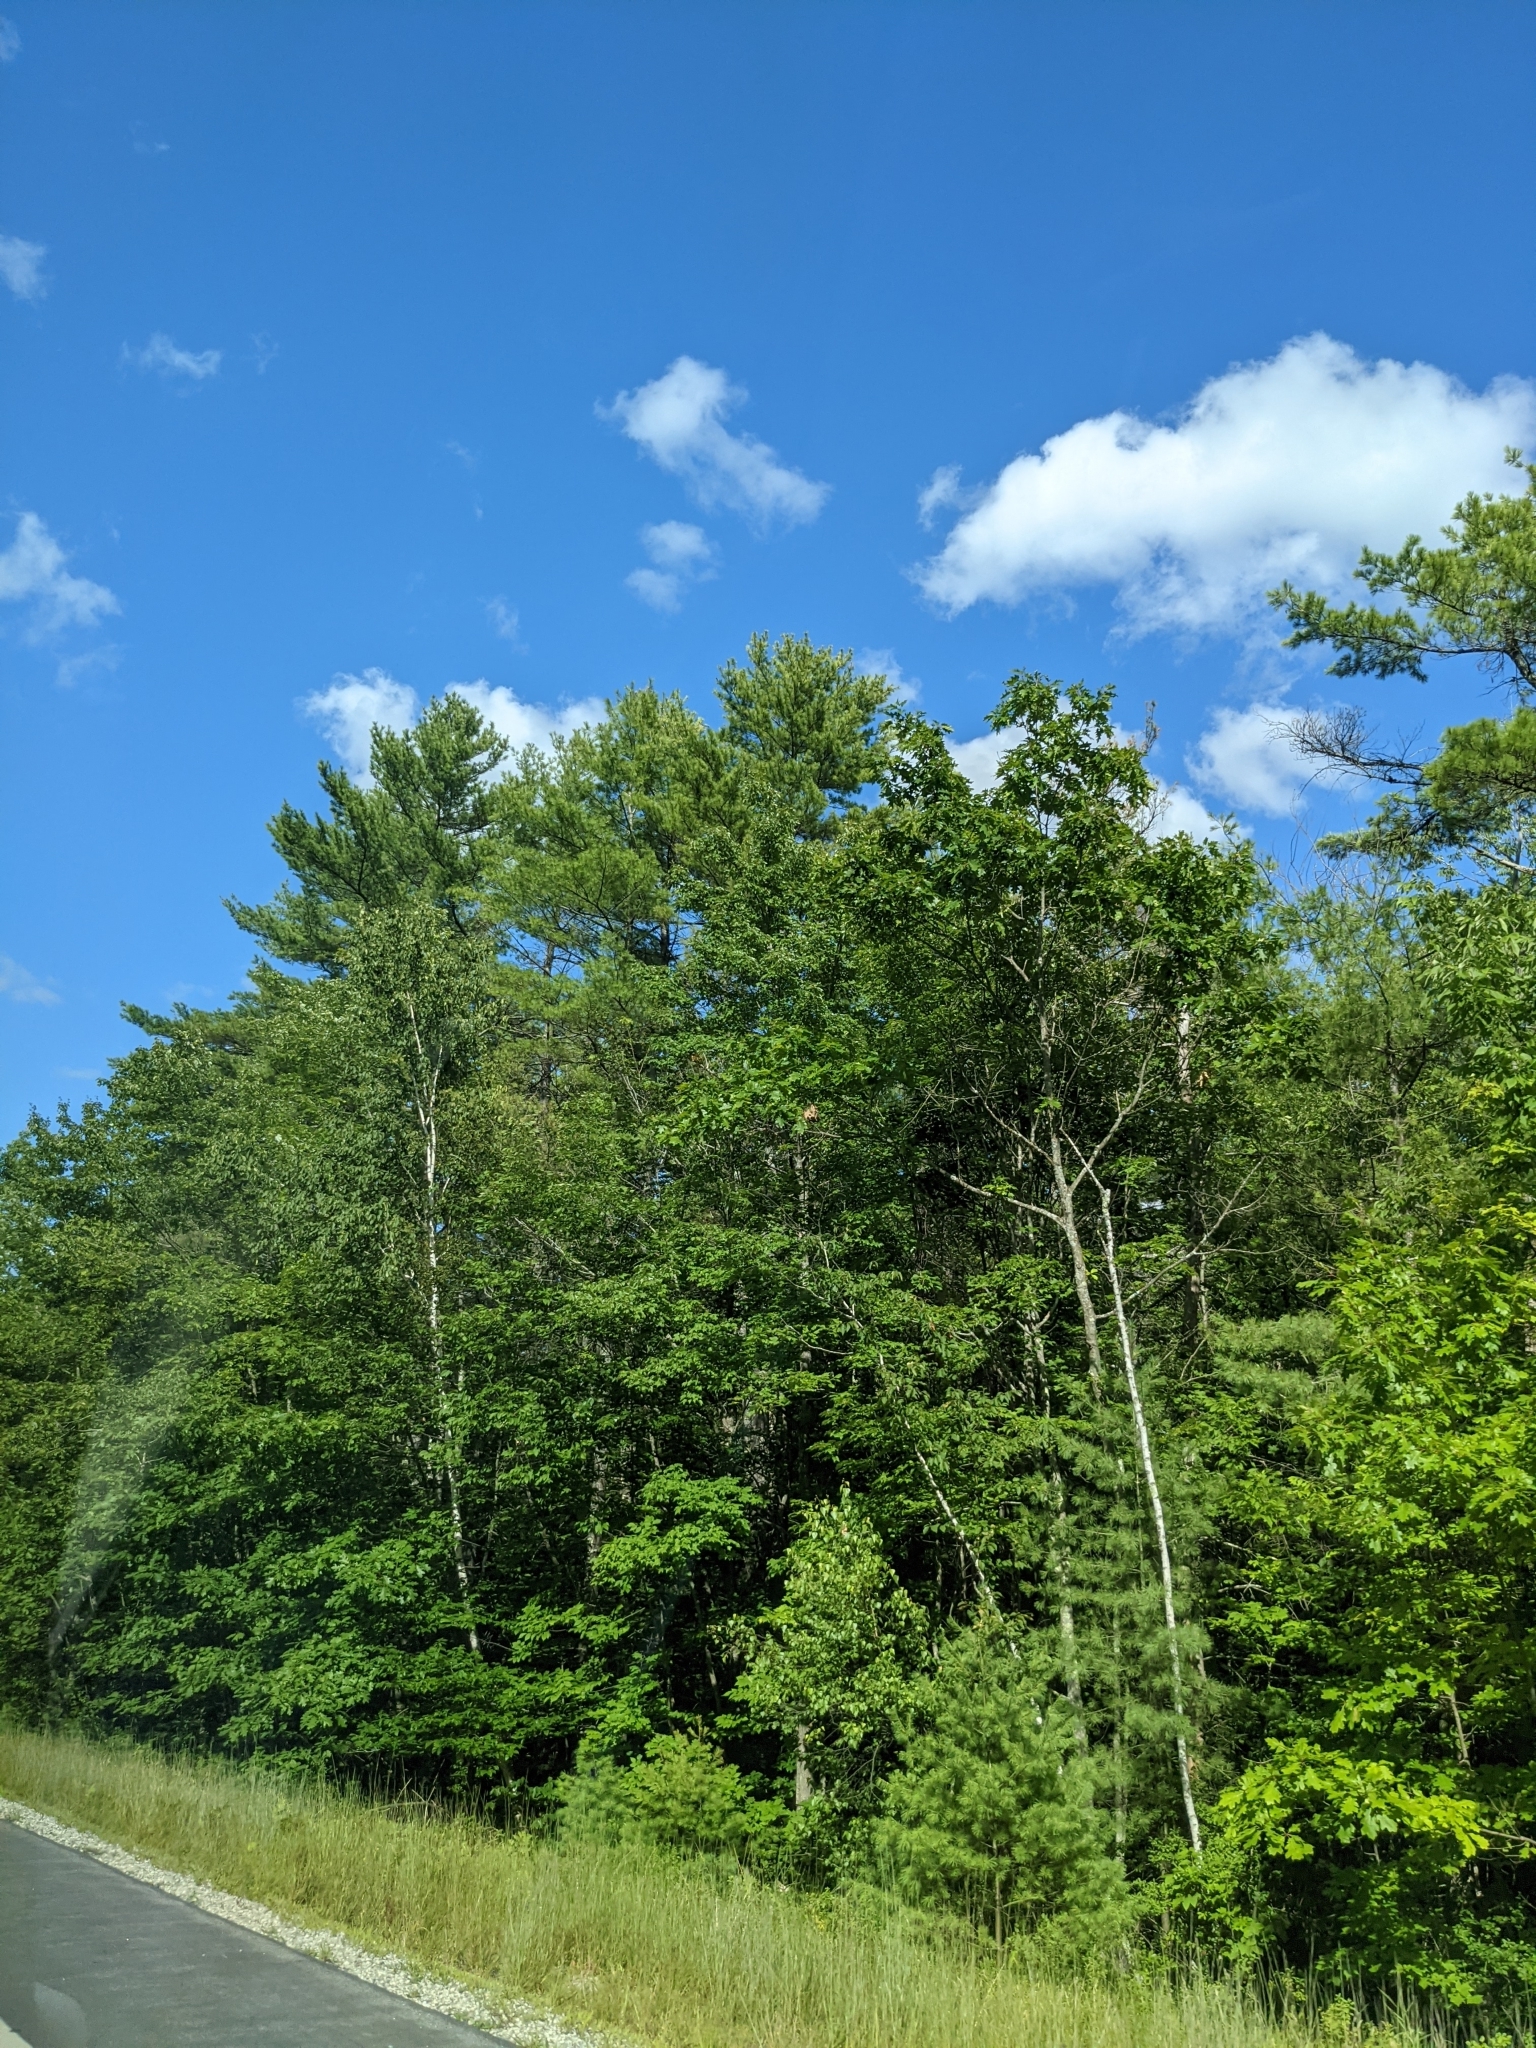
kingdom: Plantae
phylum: Tracheophyta
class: Pinopsida
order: Pinales
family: Pinaceae
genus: Pinus
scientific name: Pinus strobus
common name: Weymouth pine
